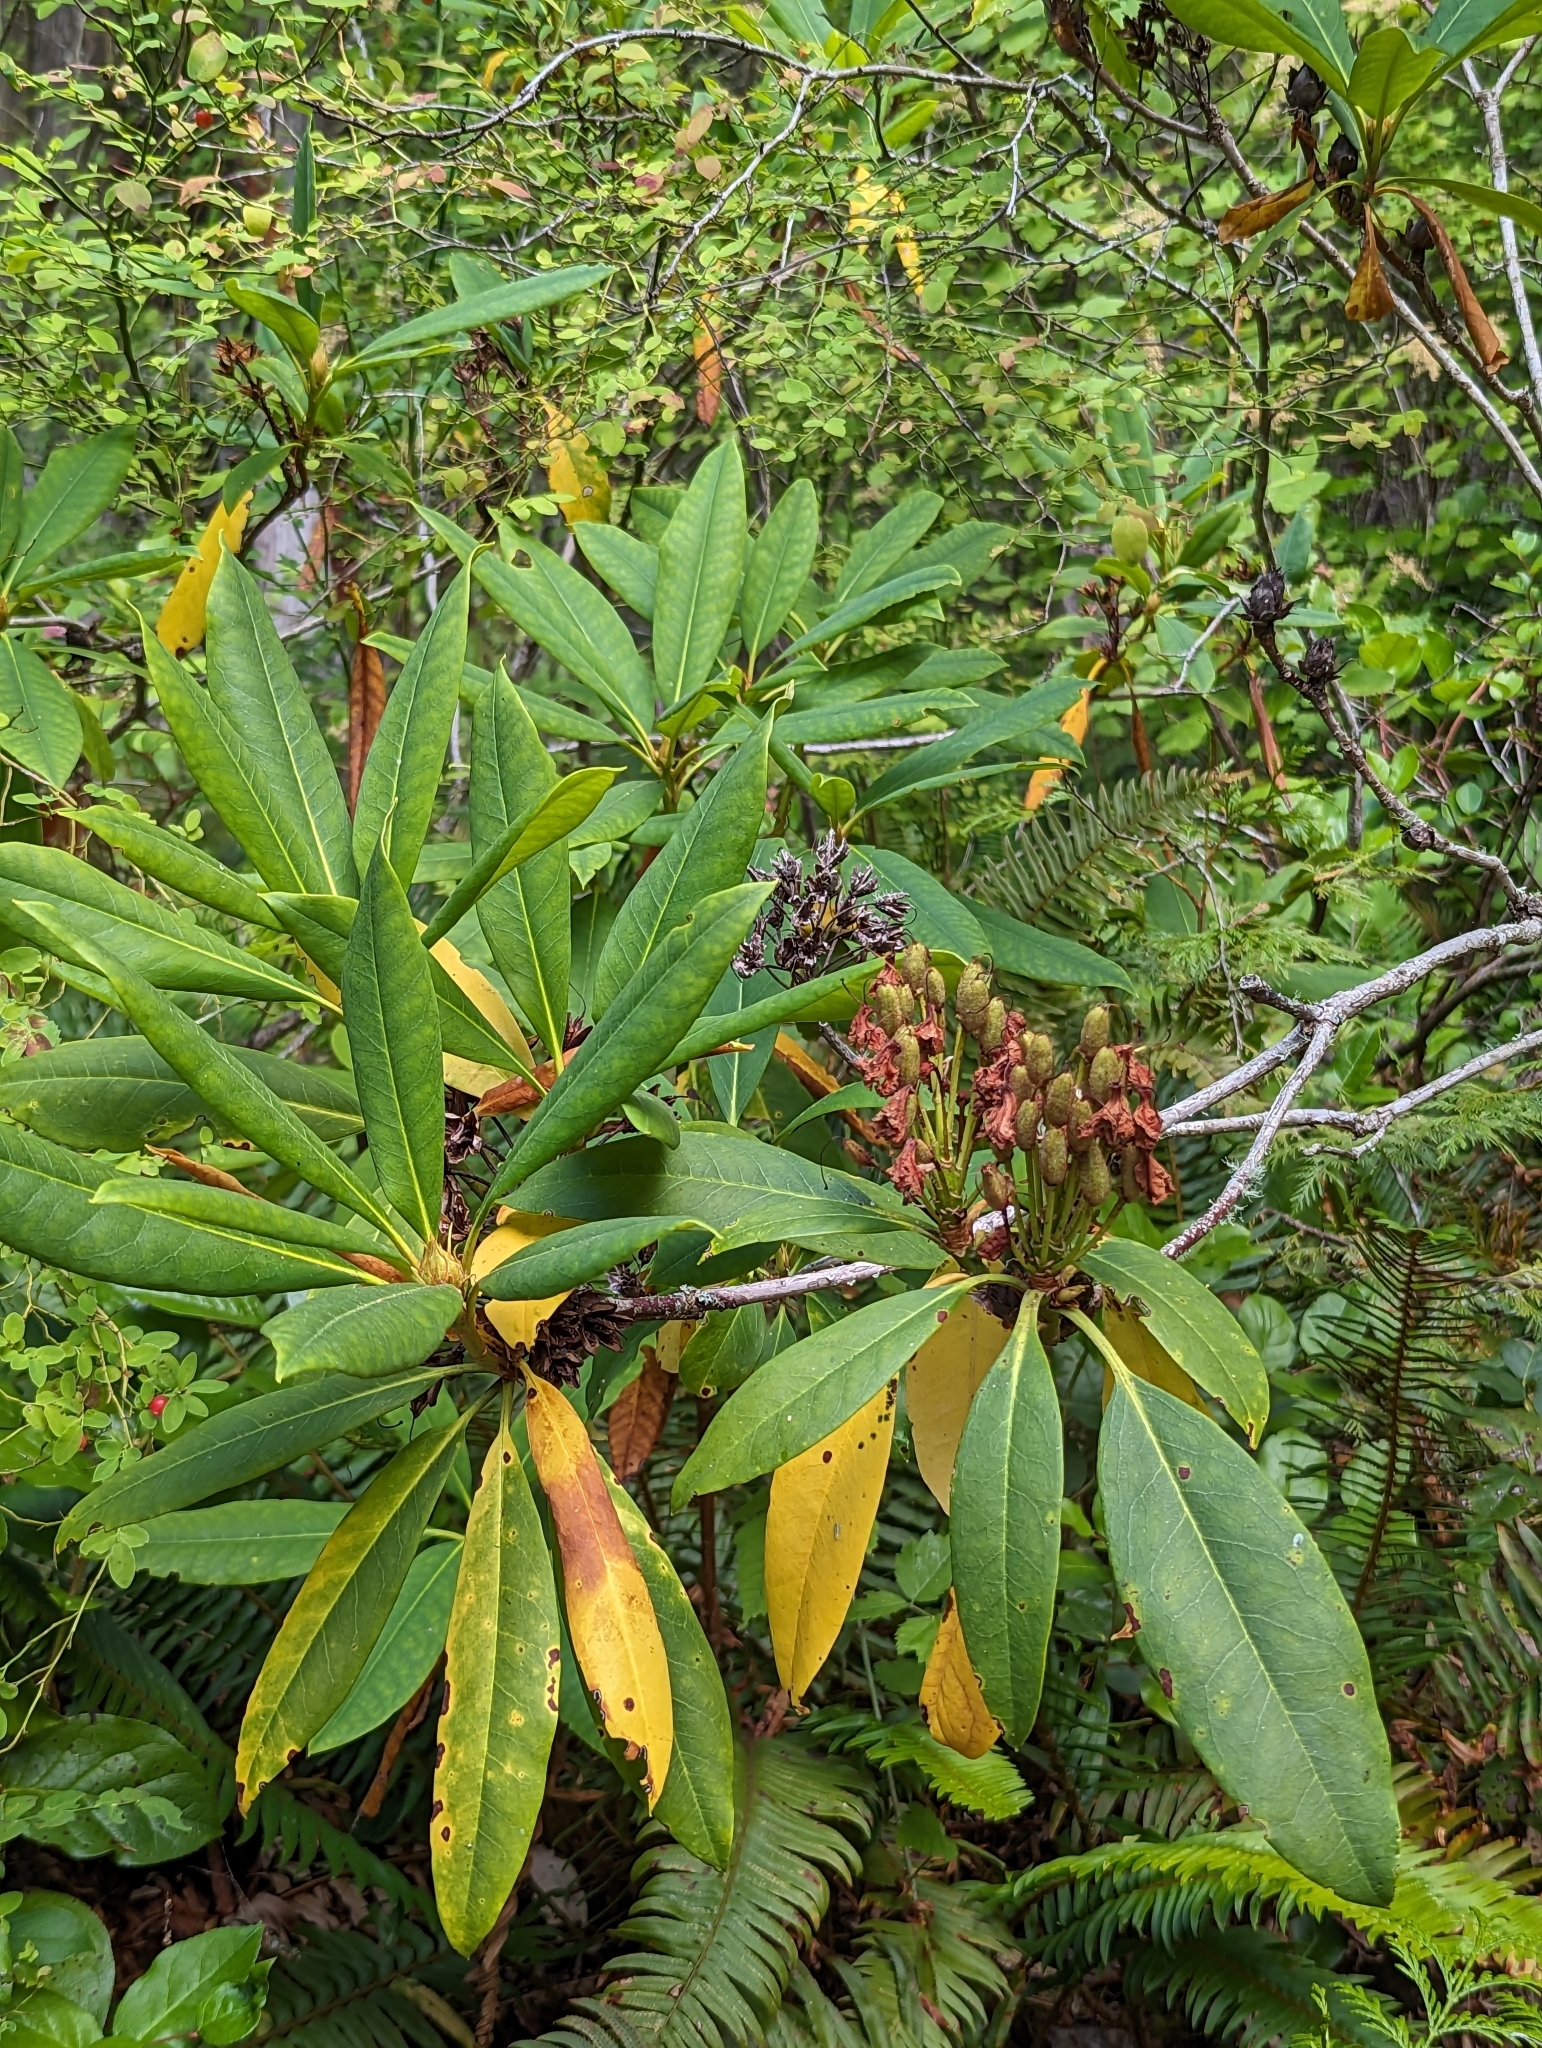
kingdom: Plantae
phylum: Tracheophyta
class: Magnoliopsida
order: Ericales
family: Ericaceae
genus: Rhododendron
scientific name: Rhododendron macrophyllum
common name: California rose bay
